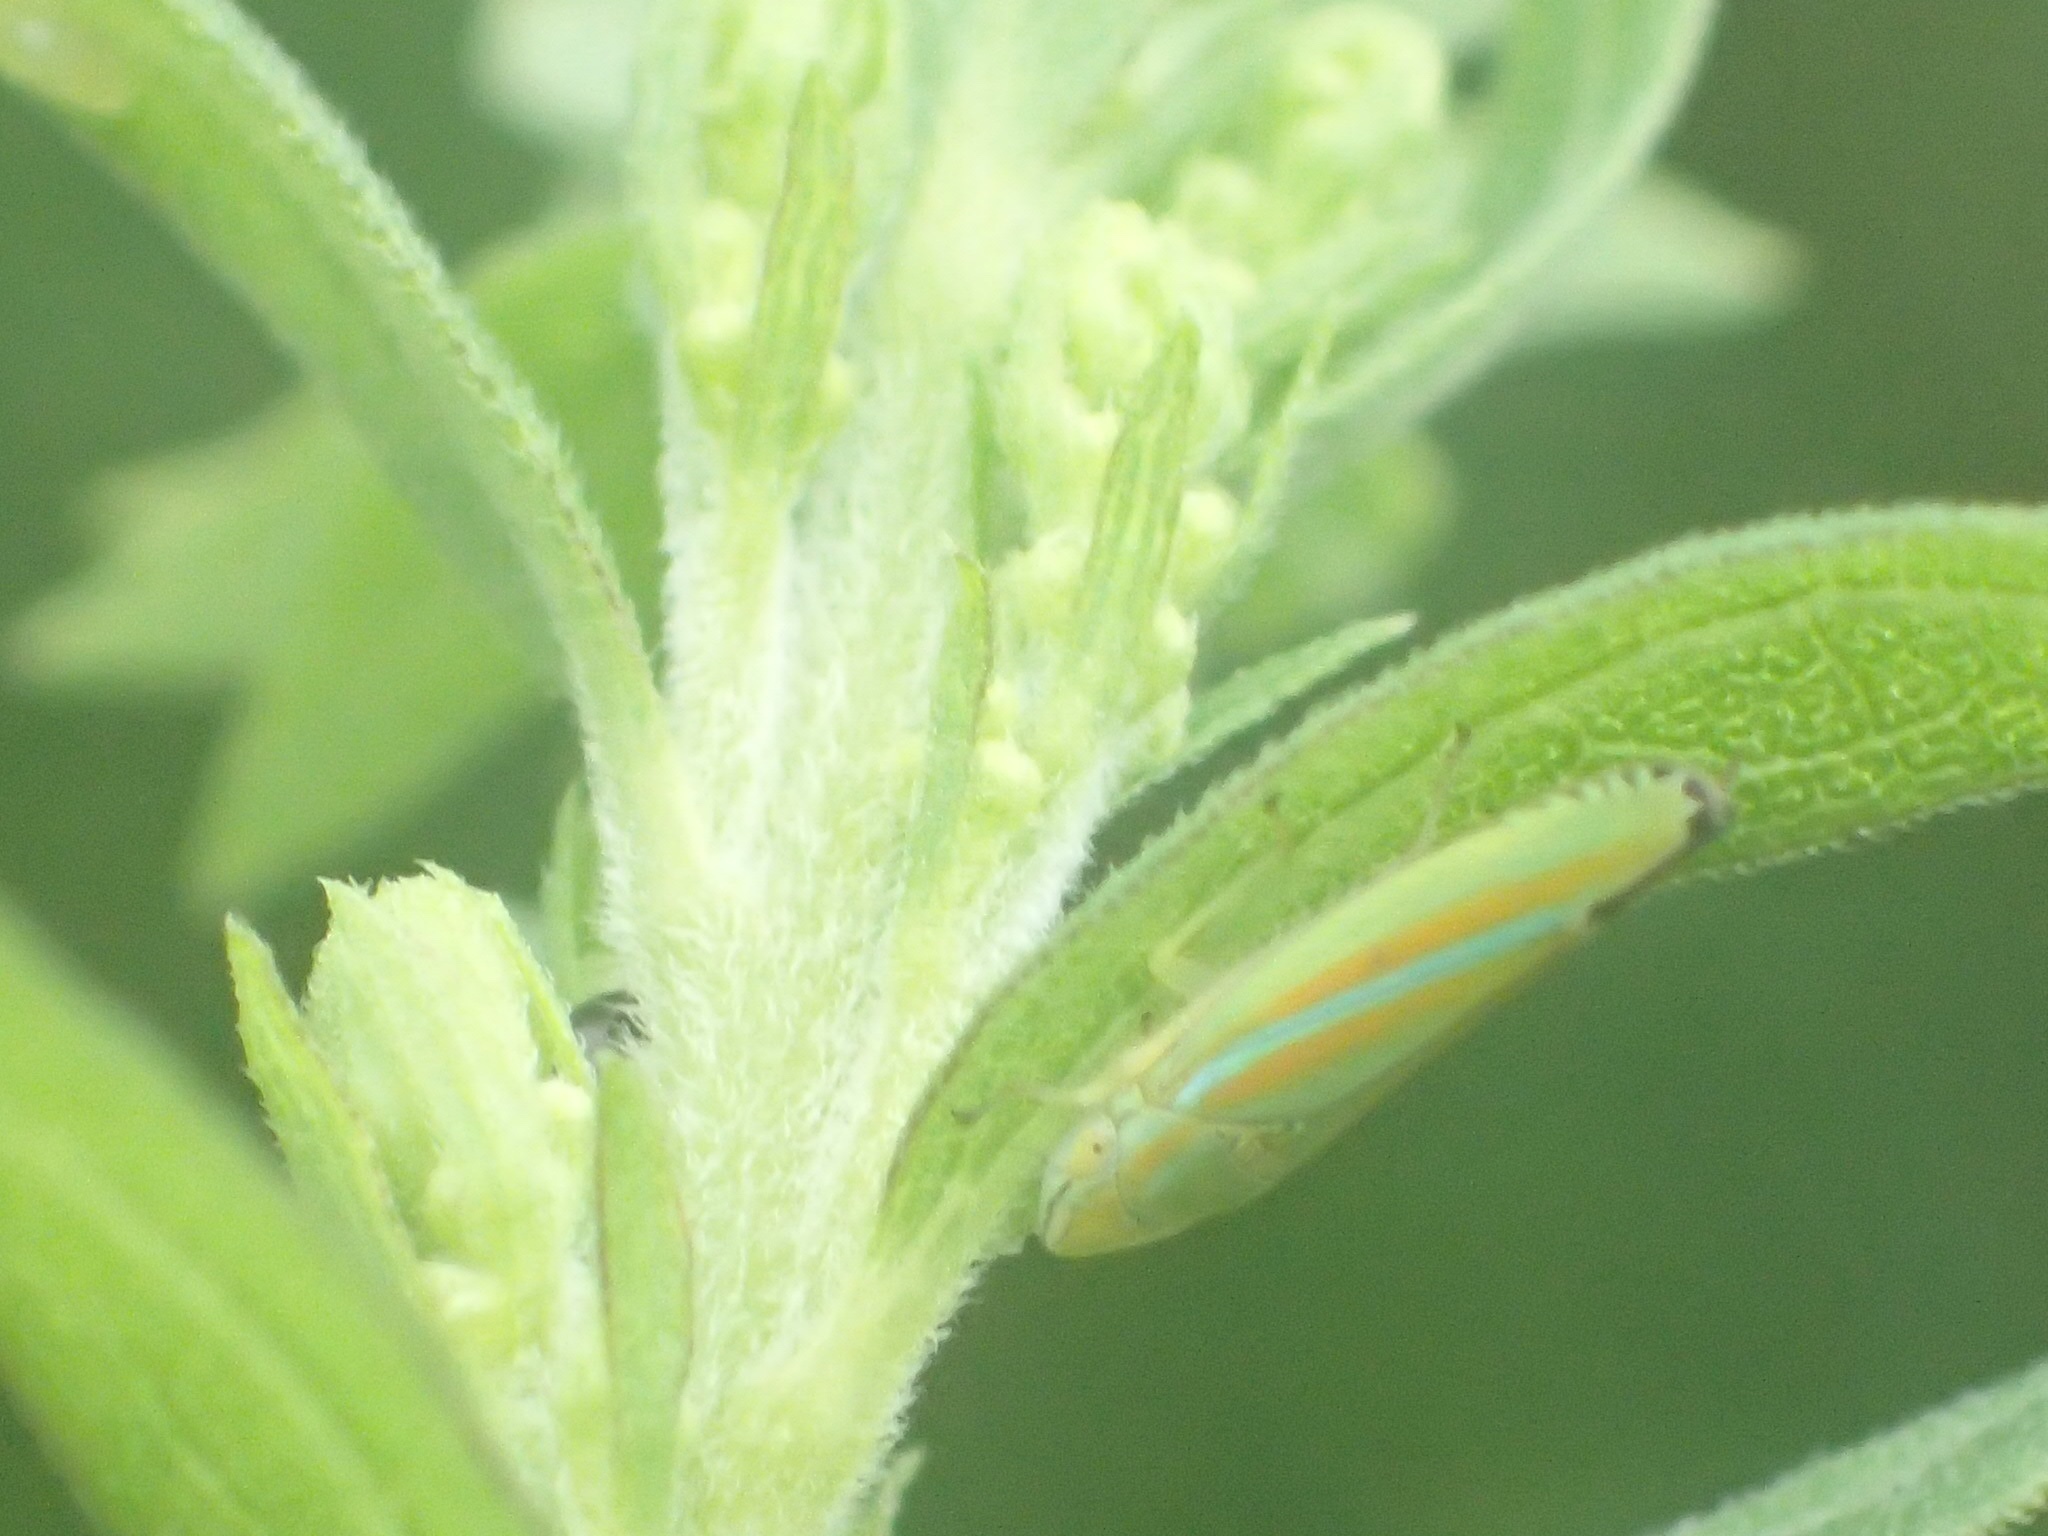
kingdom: Animalia
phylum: Arthropoda
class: Insecta
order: Hemiptera
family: Cicadellidae
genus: Graphocephala
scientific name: Graphocephala versuta
